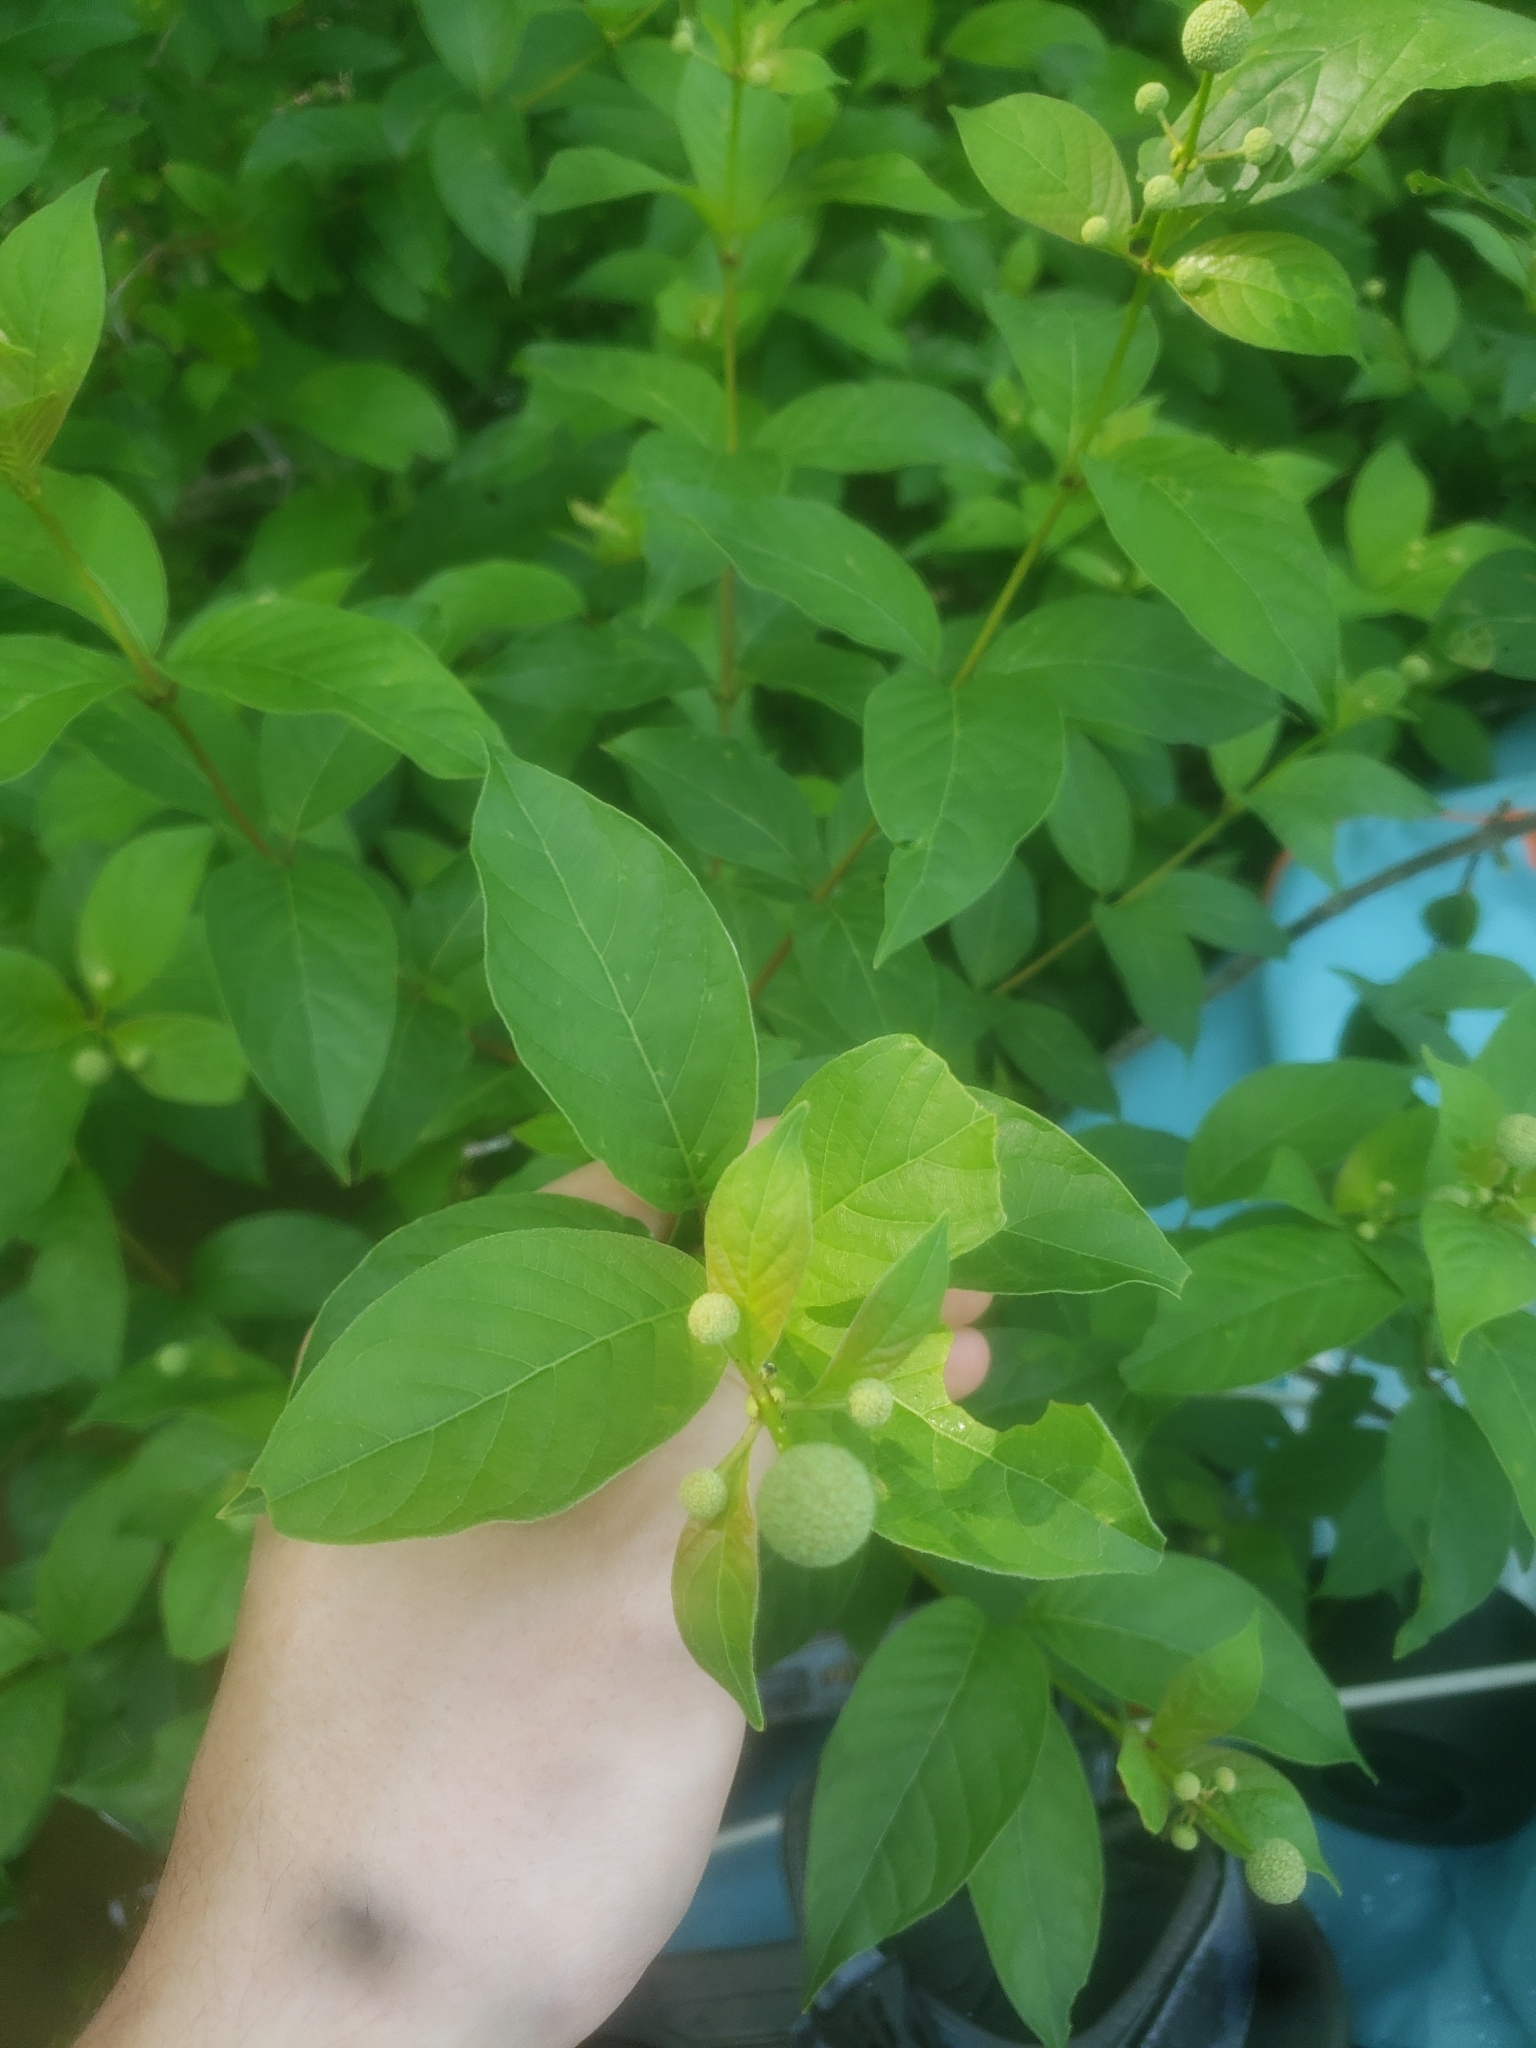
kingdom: Plantae
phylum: Tracheophyta
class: Magnoliopsida
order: Gentianales
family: Rubiaceae
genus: Cephalanthus
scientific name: Cephalanthus occidentalis
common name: Button-willow
